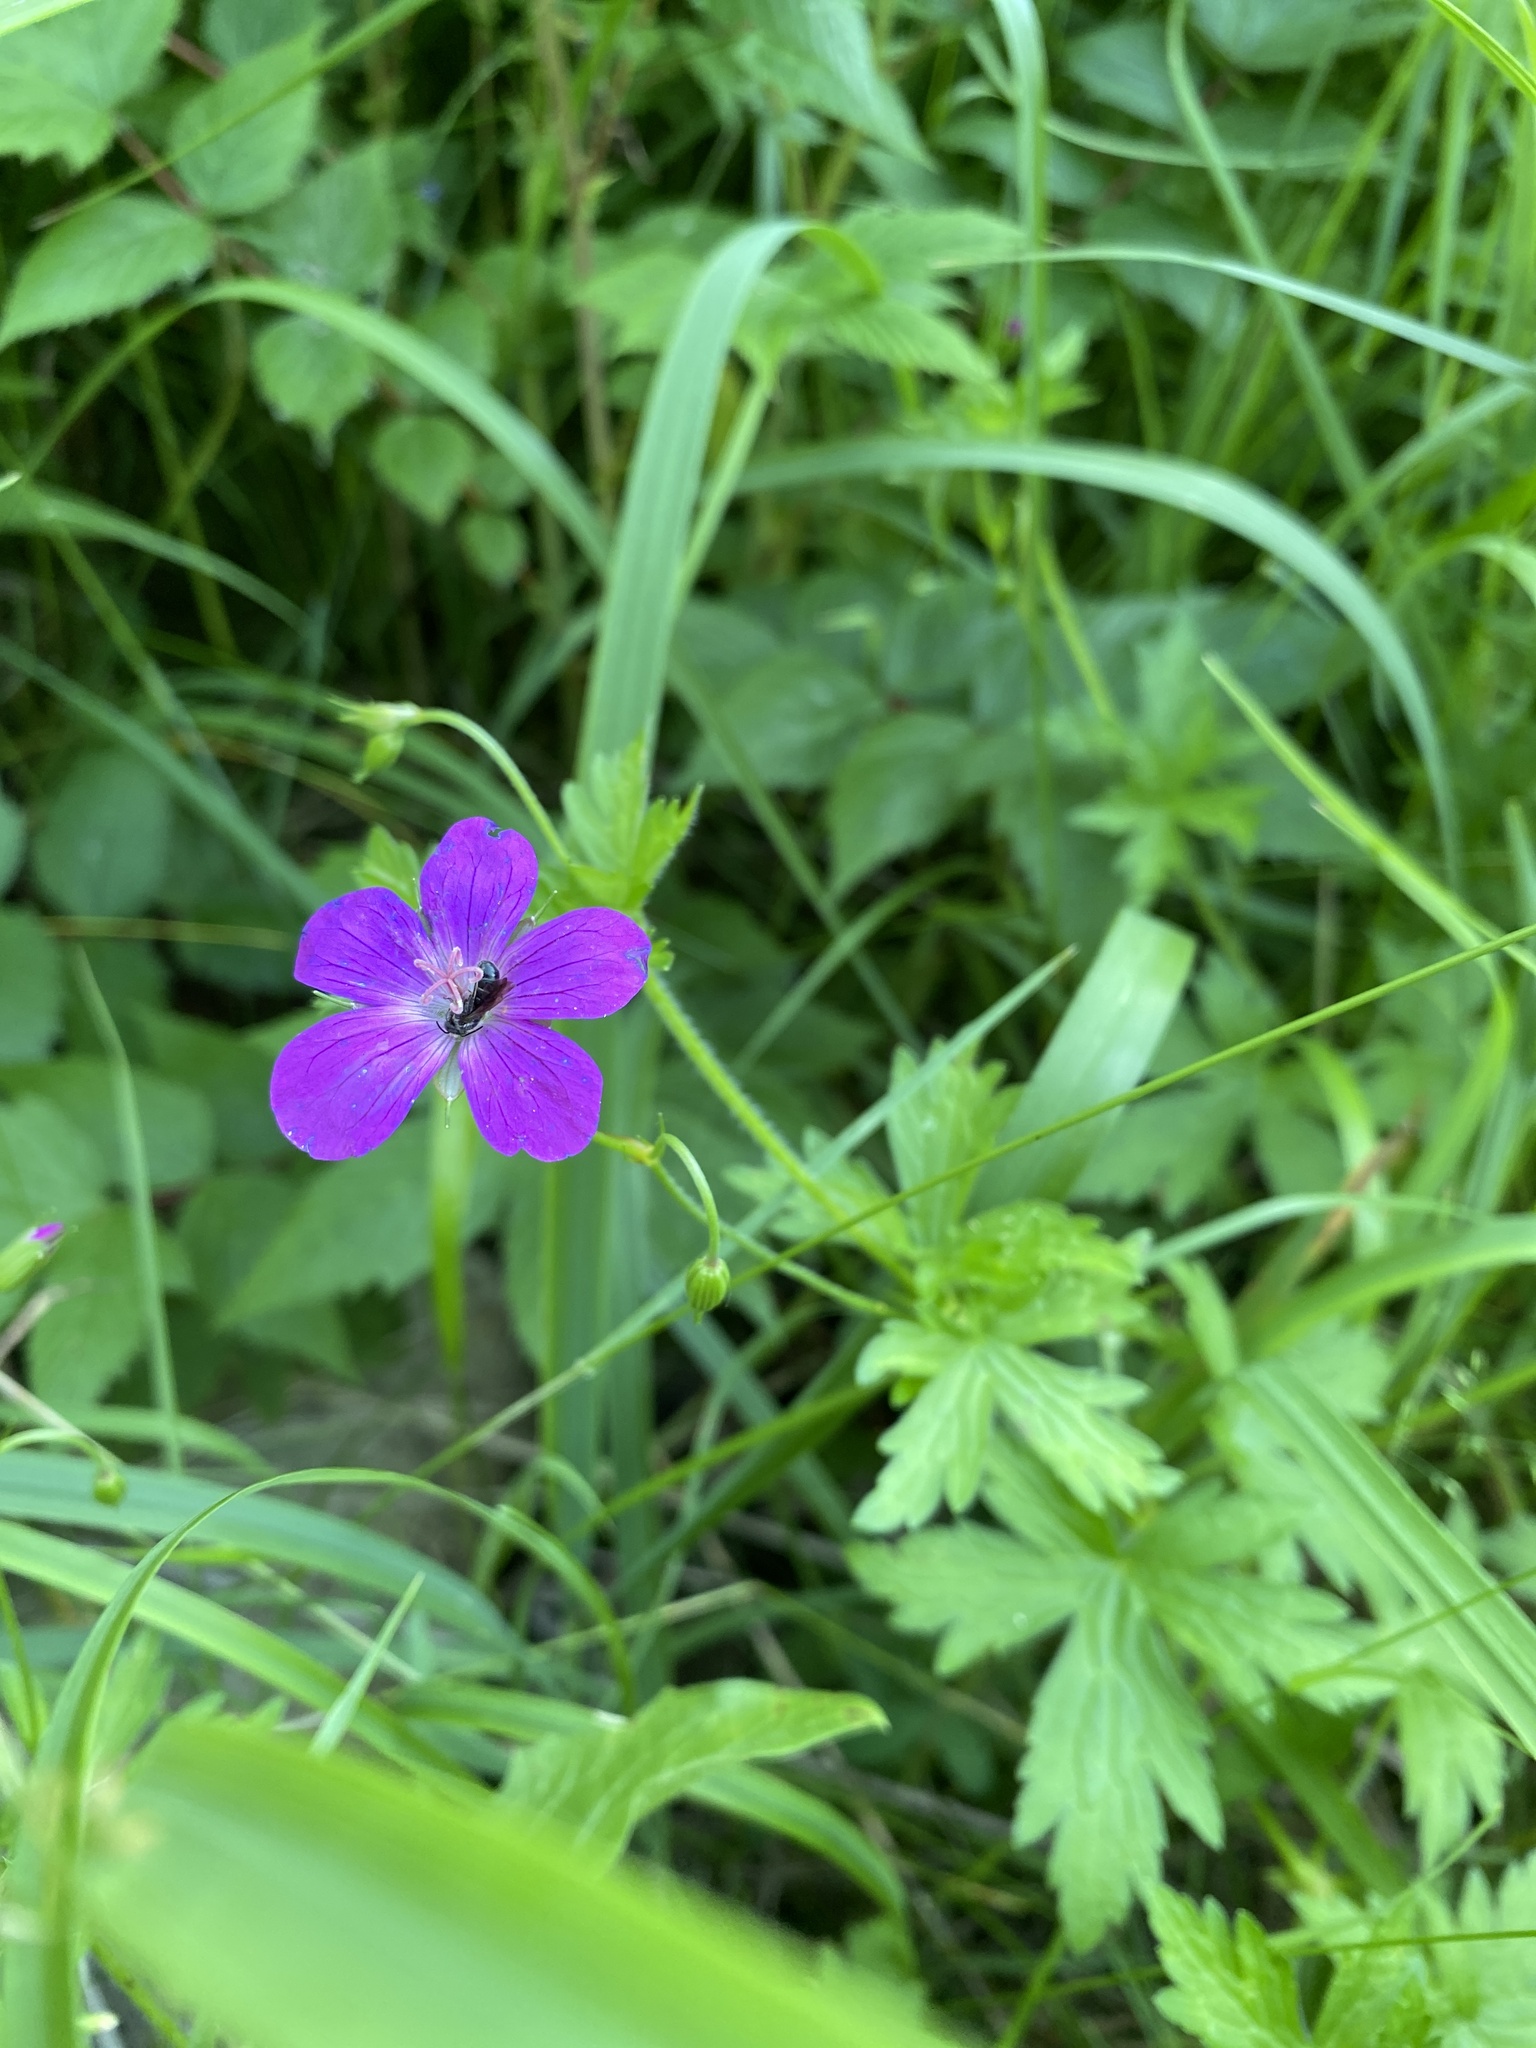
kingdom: Plantae
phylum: Tracheophyta
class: Magnoliopsida
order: Geraniales
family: Geraniaceae
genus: Geranium
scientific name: Geranium palustre
